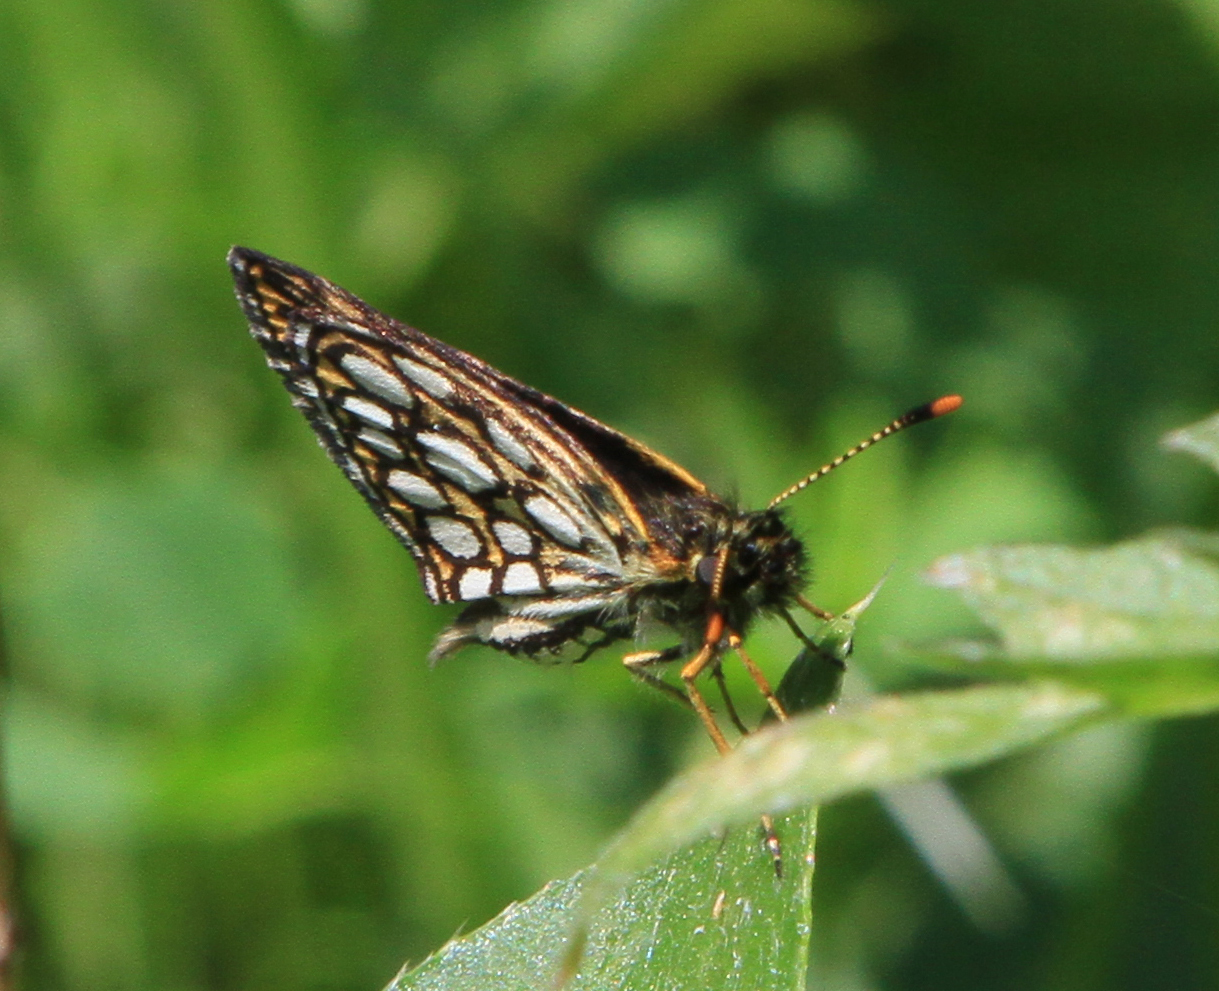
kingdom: Animalia
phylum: Arthropoda
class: Insecta
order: Lepidoptera
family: Hesperiidae
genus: Heteropterus
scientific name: Heteropterus morpheus
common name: Large chequered skipper
